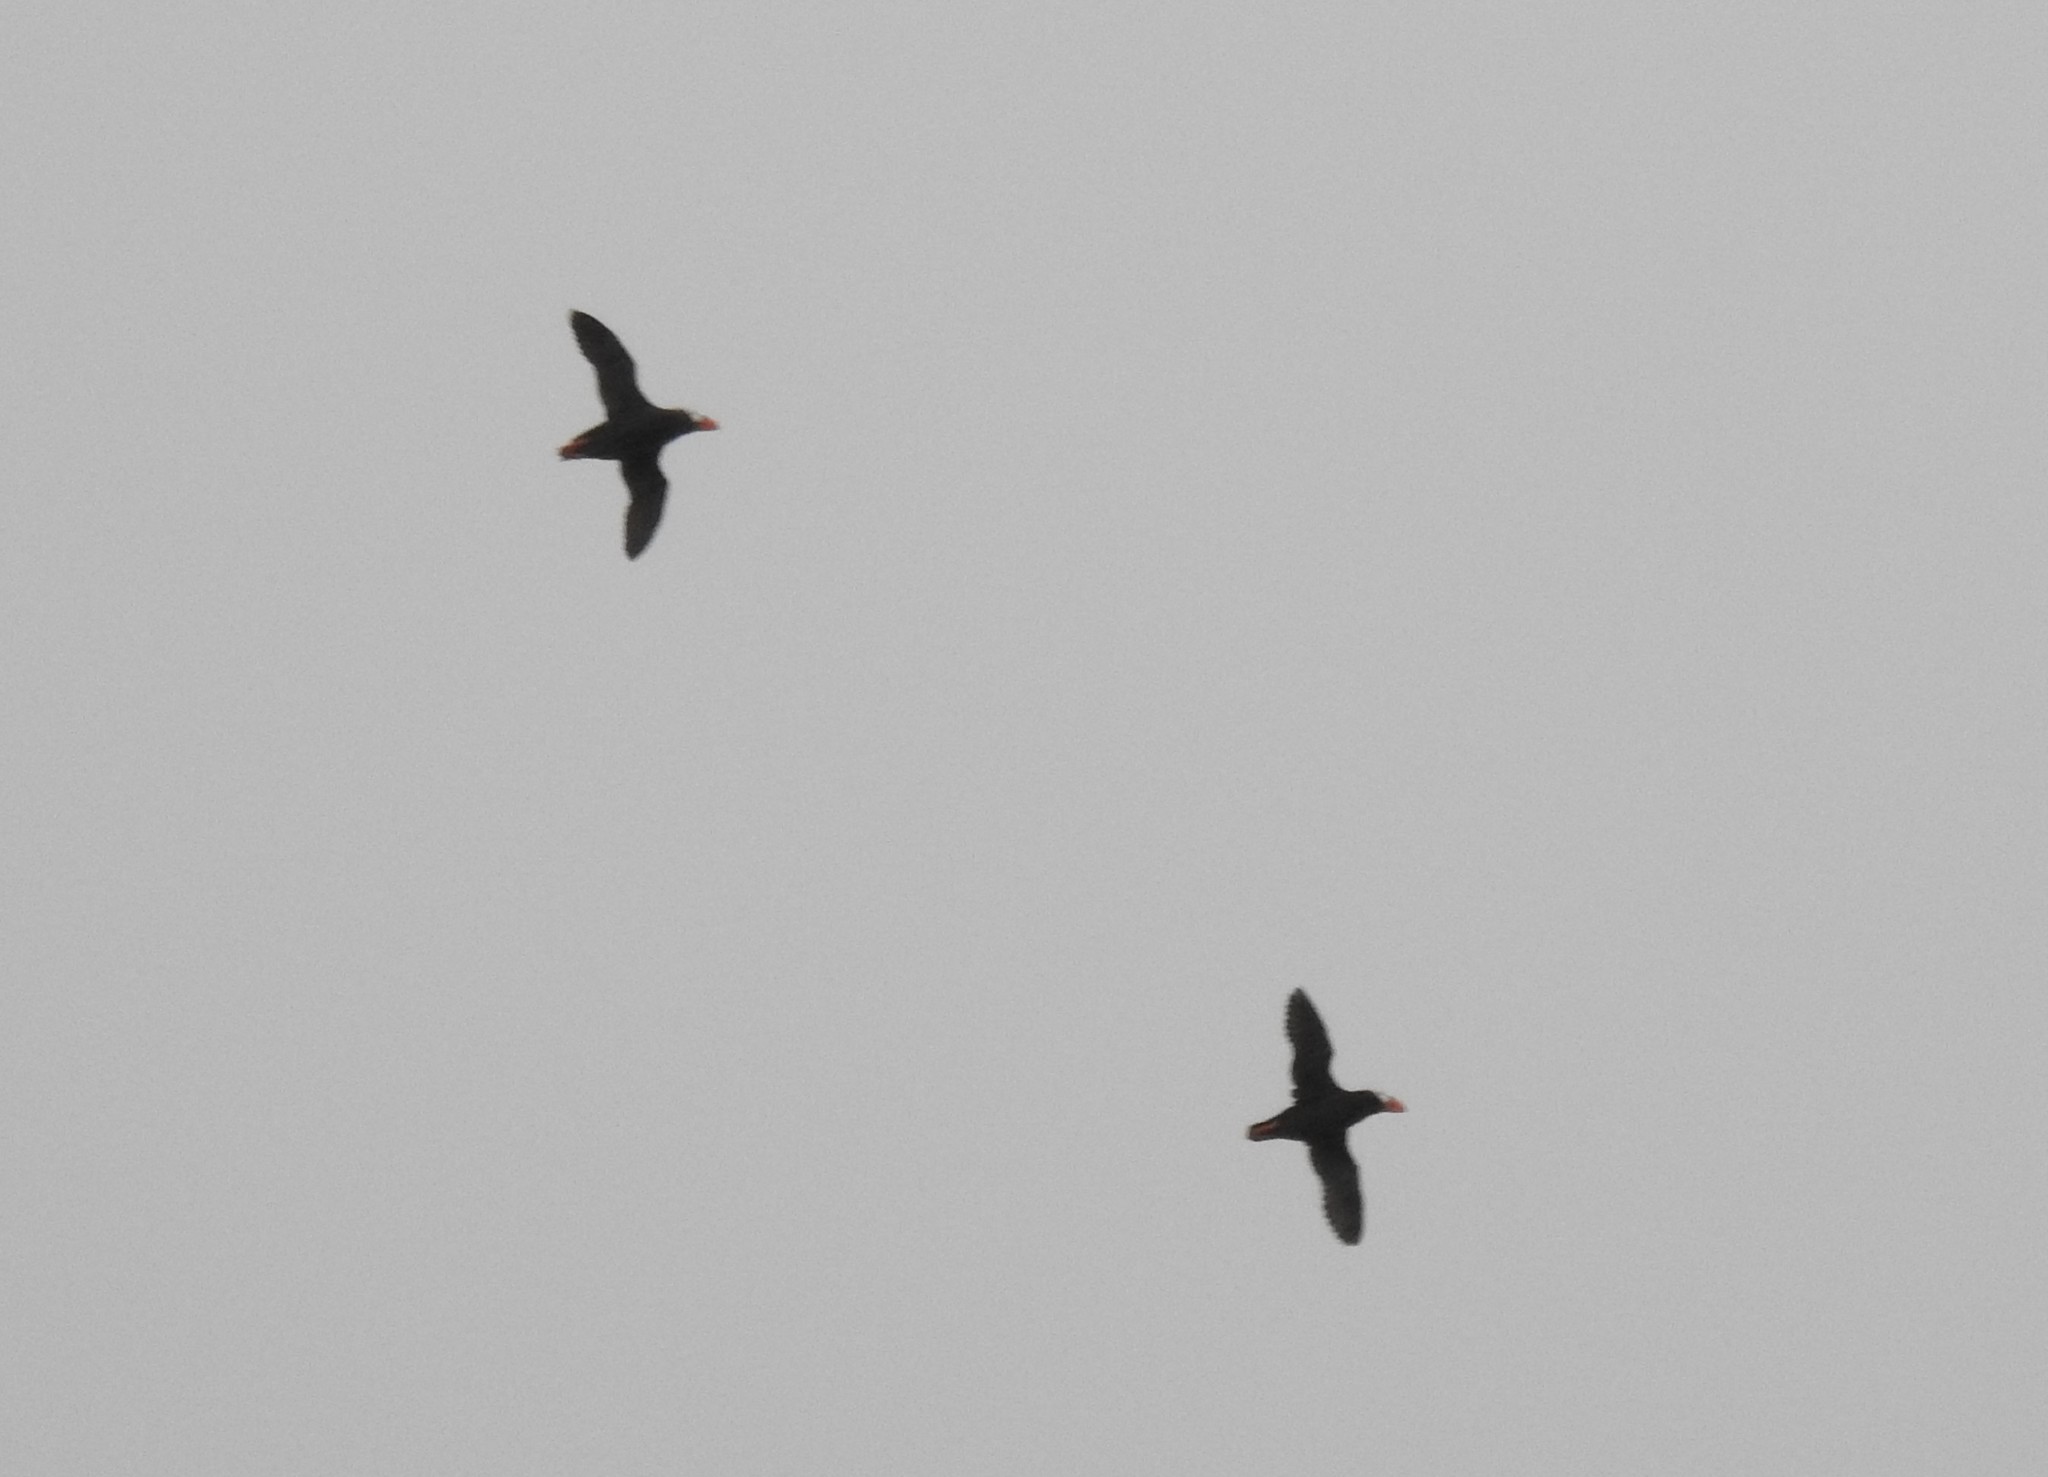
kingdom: Animalia
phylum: Chordata
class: Aves
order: Charadriiformes
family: Alcidae
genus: Fratercula
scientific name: Fratercula cirrhata
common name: Tufted puffin
